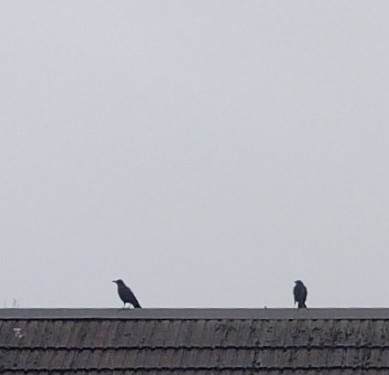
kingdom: Animalia
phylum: Chordata
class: Aves
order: Passeriformes
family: Corvidae
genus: Corvus
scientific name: Corvus brachyrhynchos
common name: American crow
